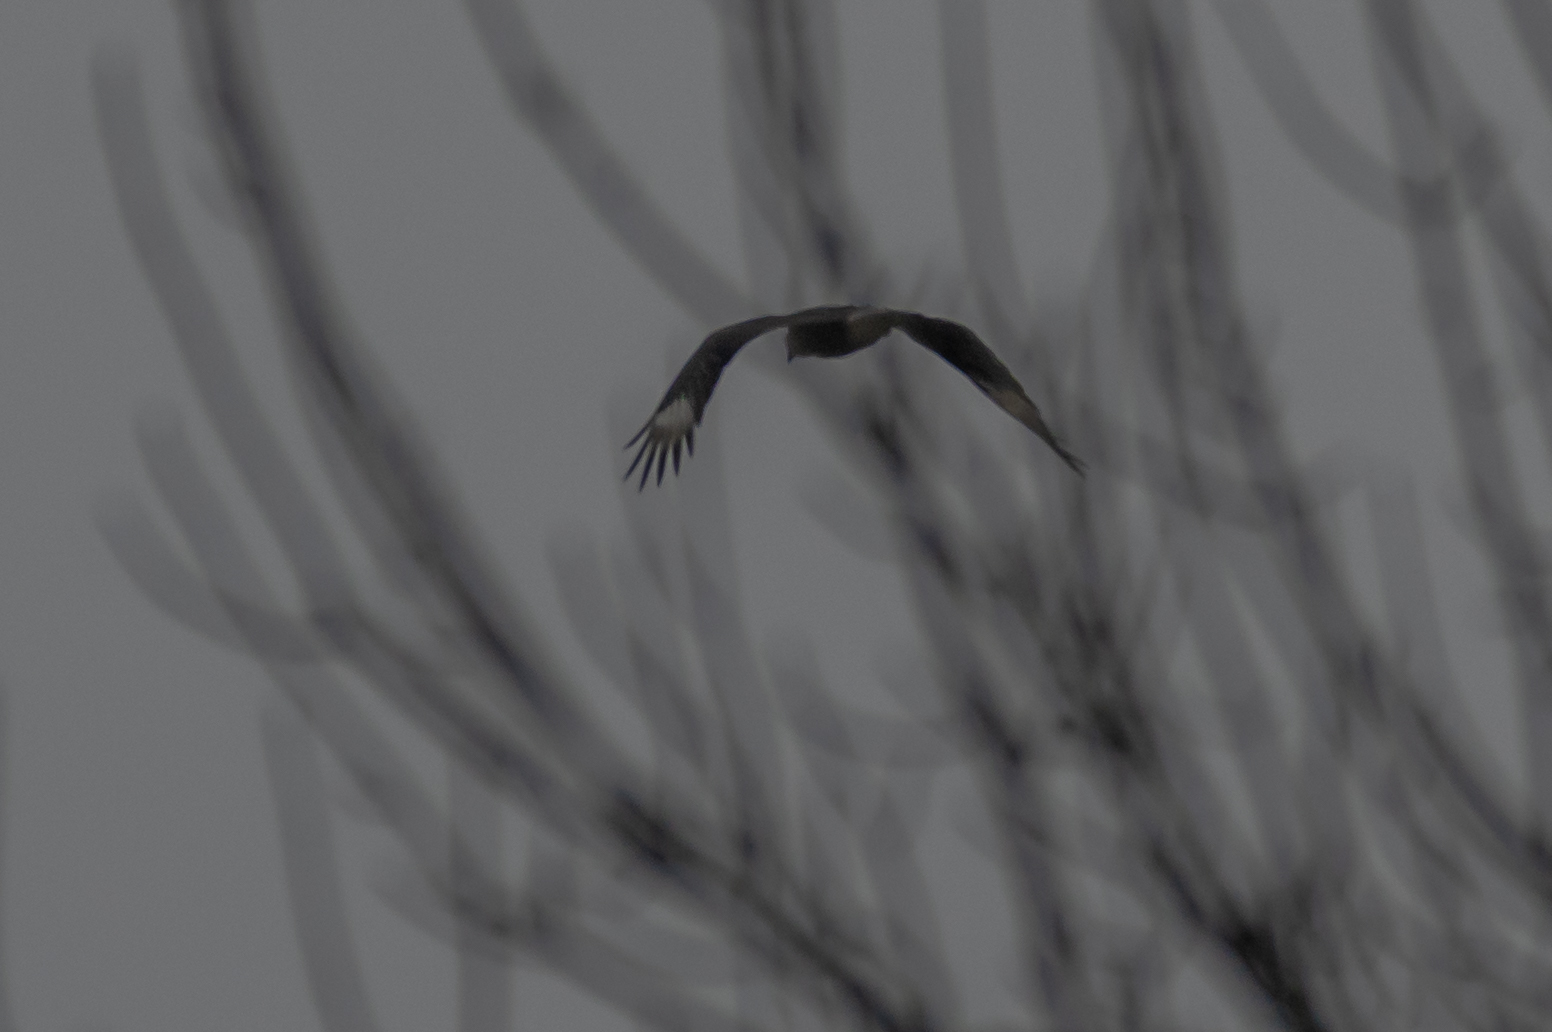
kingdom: Animalia
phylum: Chordata
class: Aves
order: Falconiformes
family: Falconidae
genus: Caracara
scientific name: Caracara plancus
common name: Southern caracara
